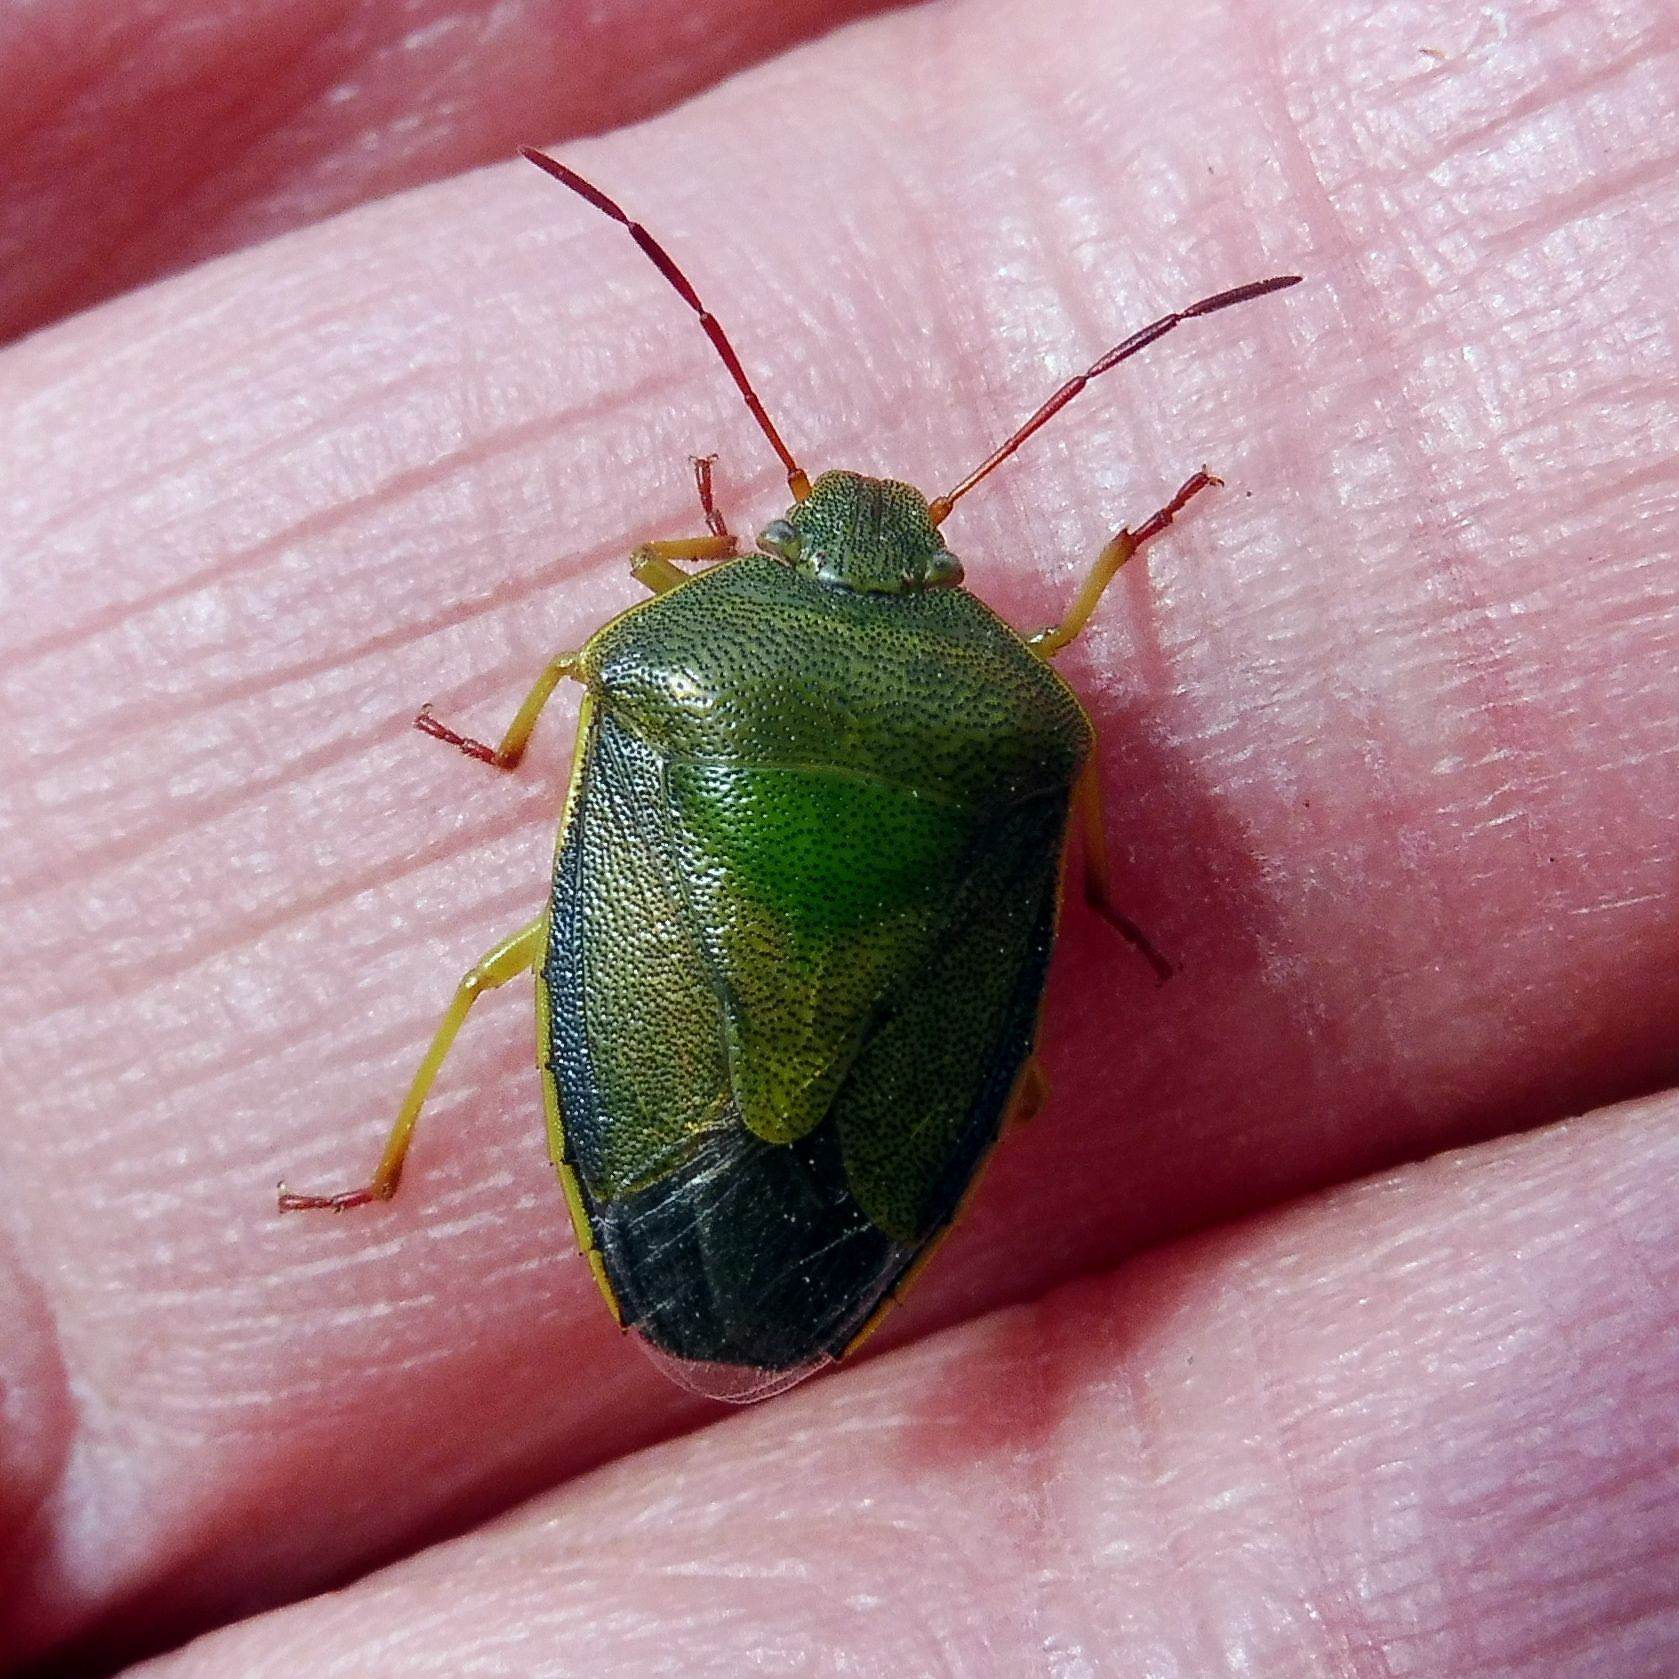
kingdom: Animalia
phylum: Arthropoda
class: Insecta
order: Hemiptera
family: Pentatomidae
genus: Piezodorus
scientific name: Piezodorus lituratus
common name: Stink bug
